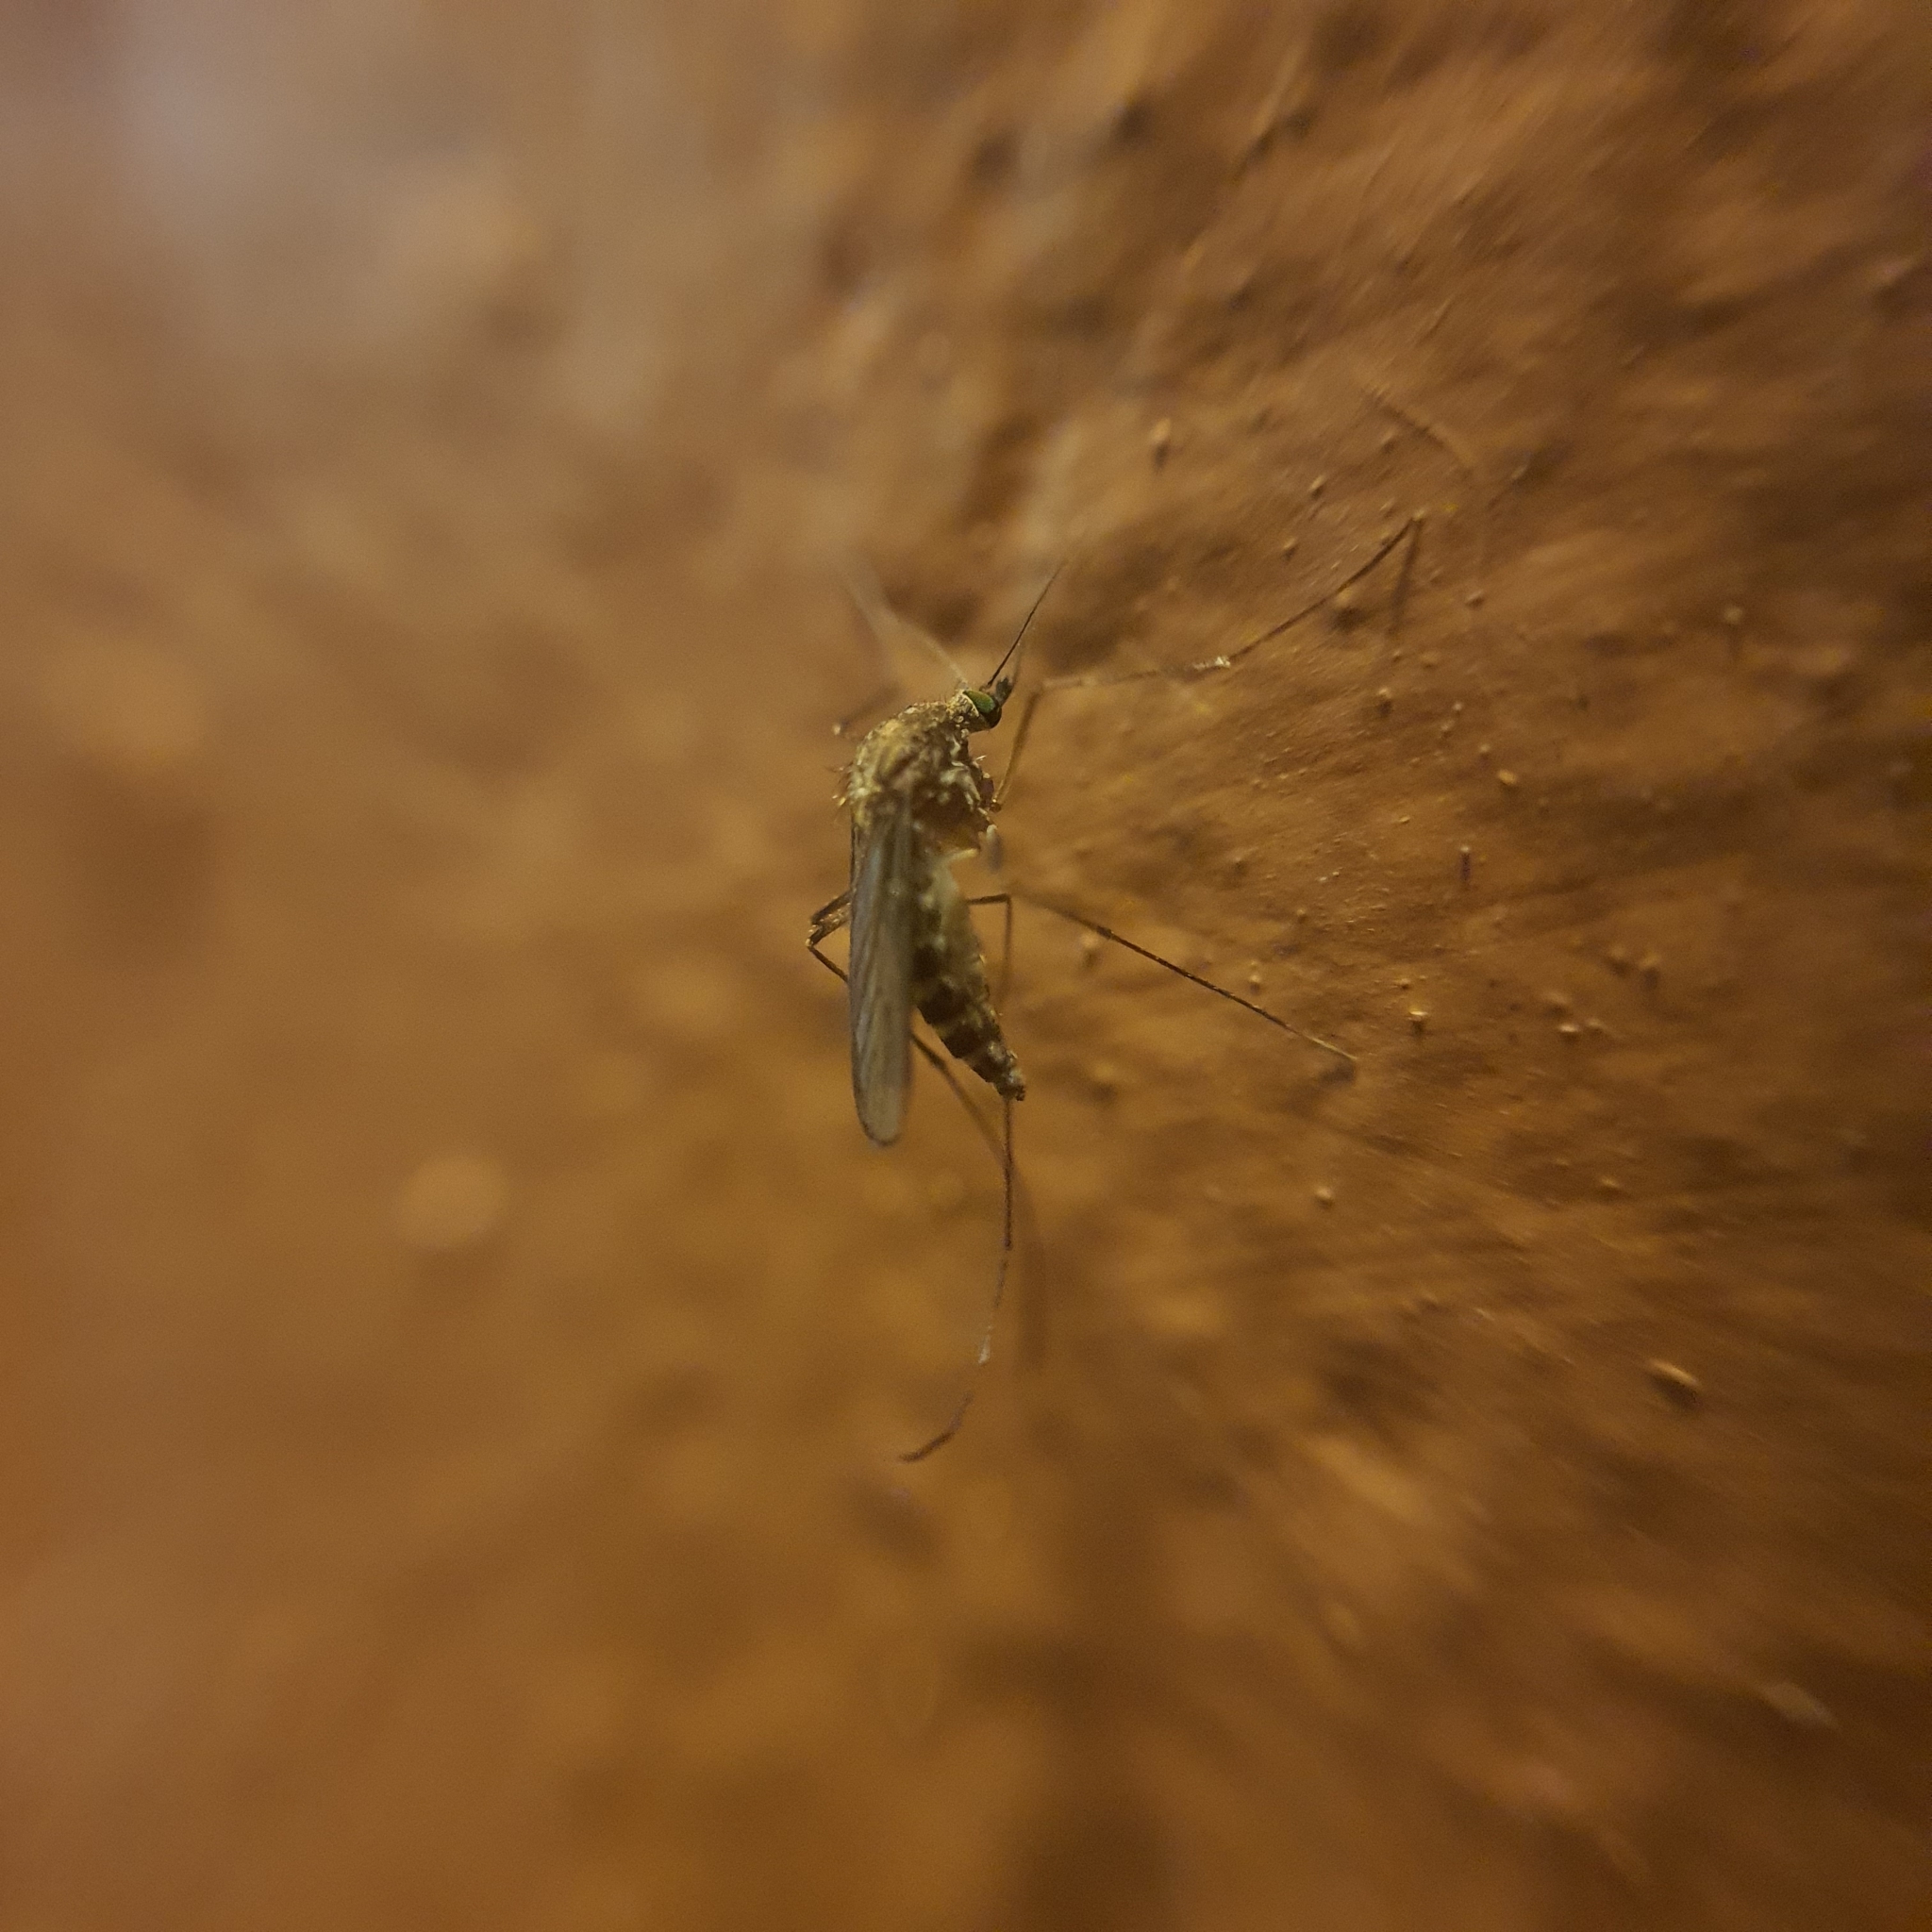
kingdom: Animalia
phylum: Arthropoda
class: Insecta
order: Diptera
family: Culicidae
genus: Culex
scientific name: Culex quinquefasciatus
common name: Southern house mosquito
